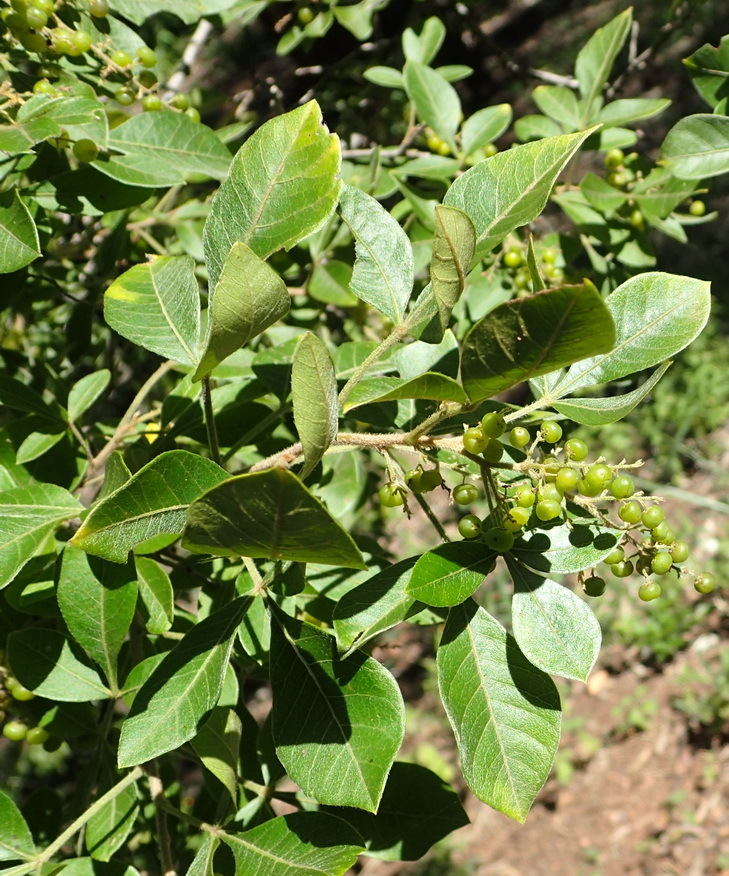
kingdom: Plantae
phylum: Tracheophyta
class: Magnoliopsida
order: Sapindales
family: Anacardiaceae
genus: Searsia
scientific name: Searsia pyroides
